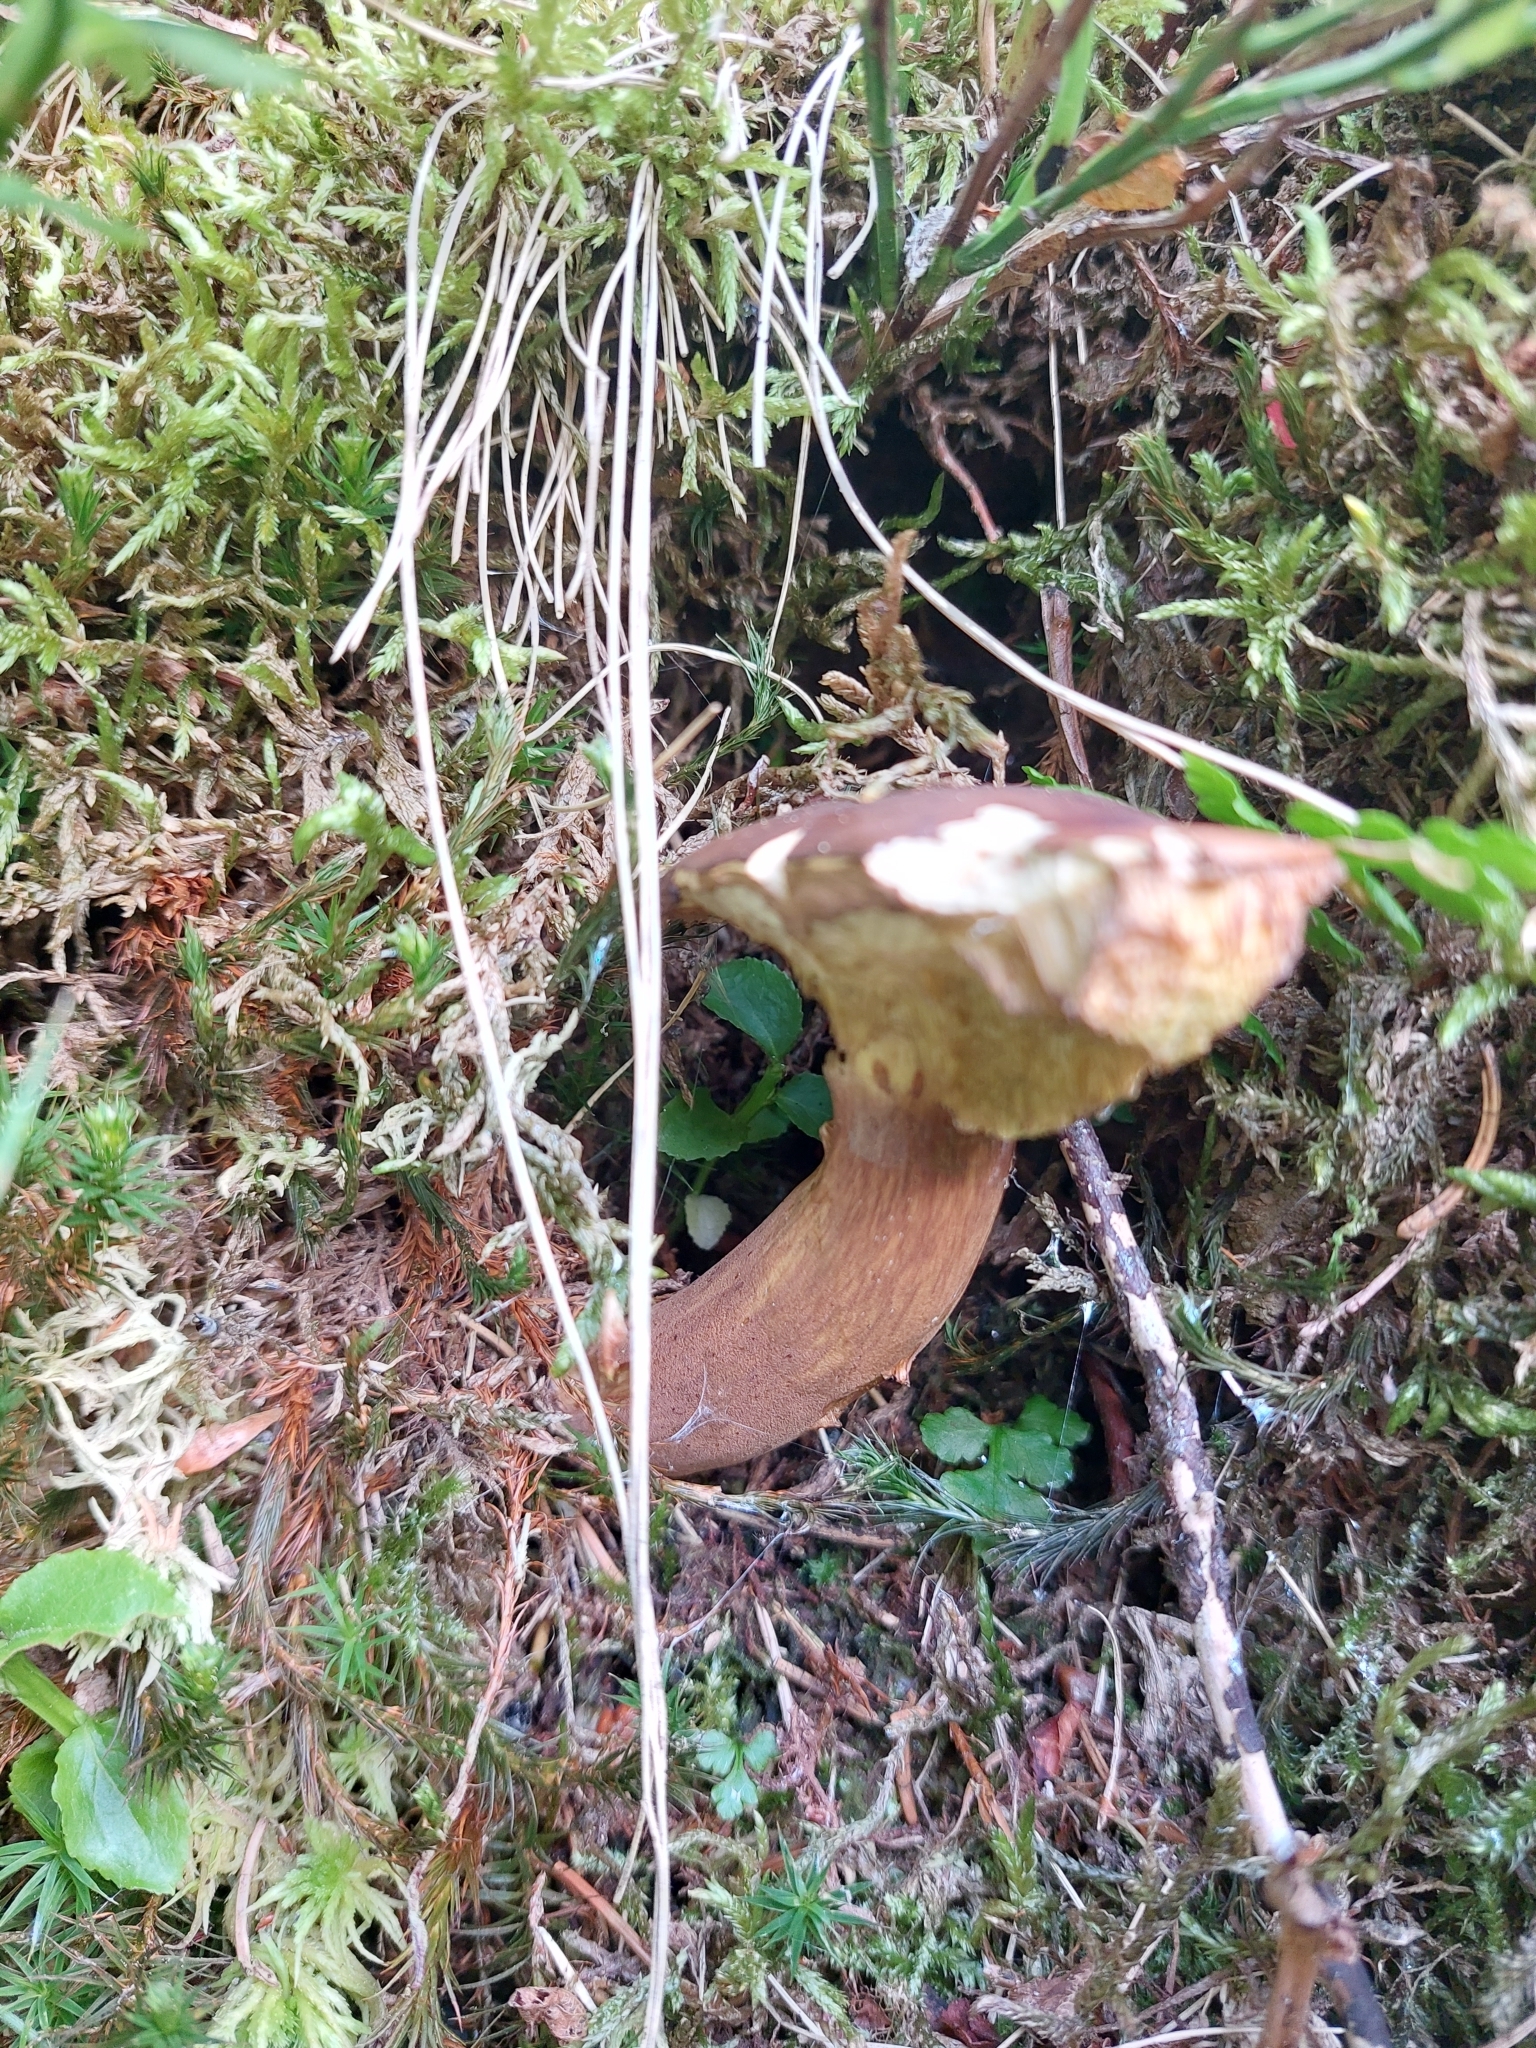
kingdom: Fungi
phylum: Basidiomycota
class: Agaricomycetes
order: Boletales
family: Boletaceae
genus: Imleria
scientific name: Imleria badia
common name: Bay bolete
